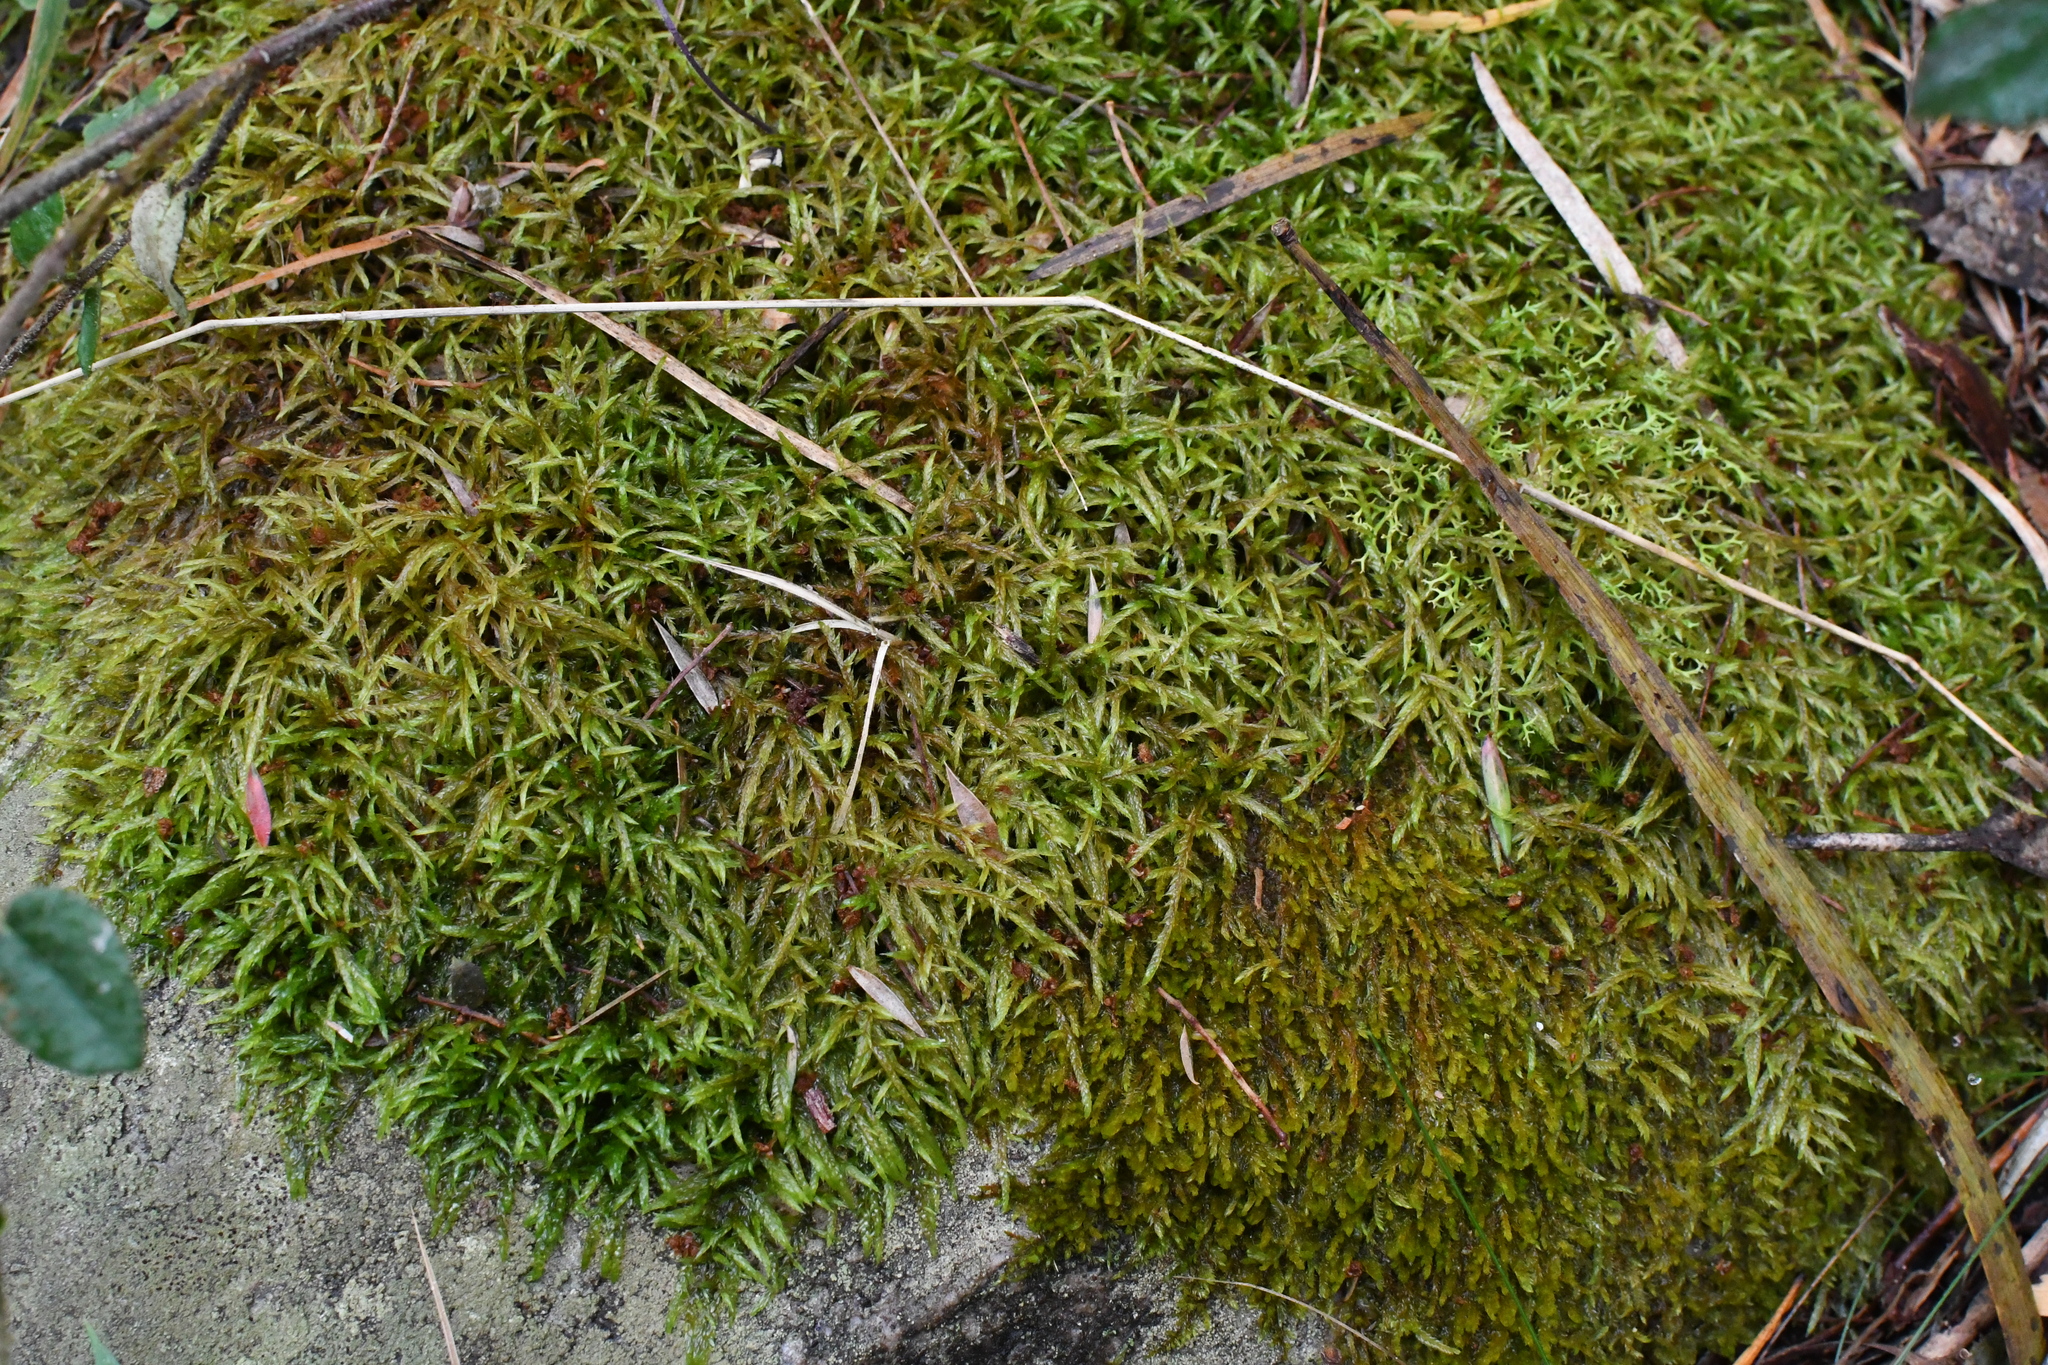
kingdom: Plantae
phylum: Bryophyta
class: Bryopsida
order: Hypnales
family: Pylaisiadelphaceae
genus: Wijkia
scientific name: Wijkia extenuata
